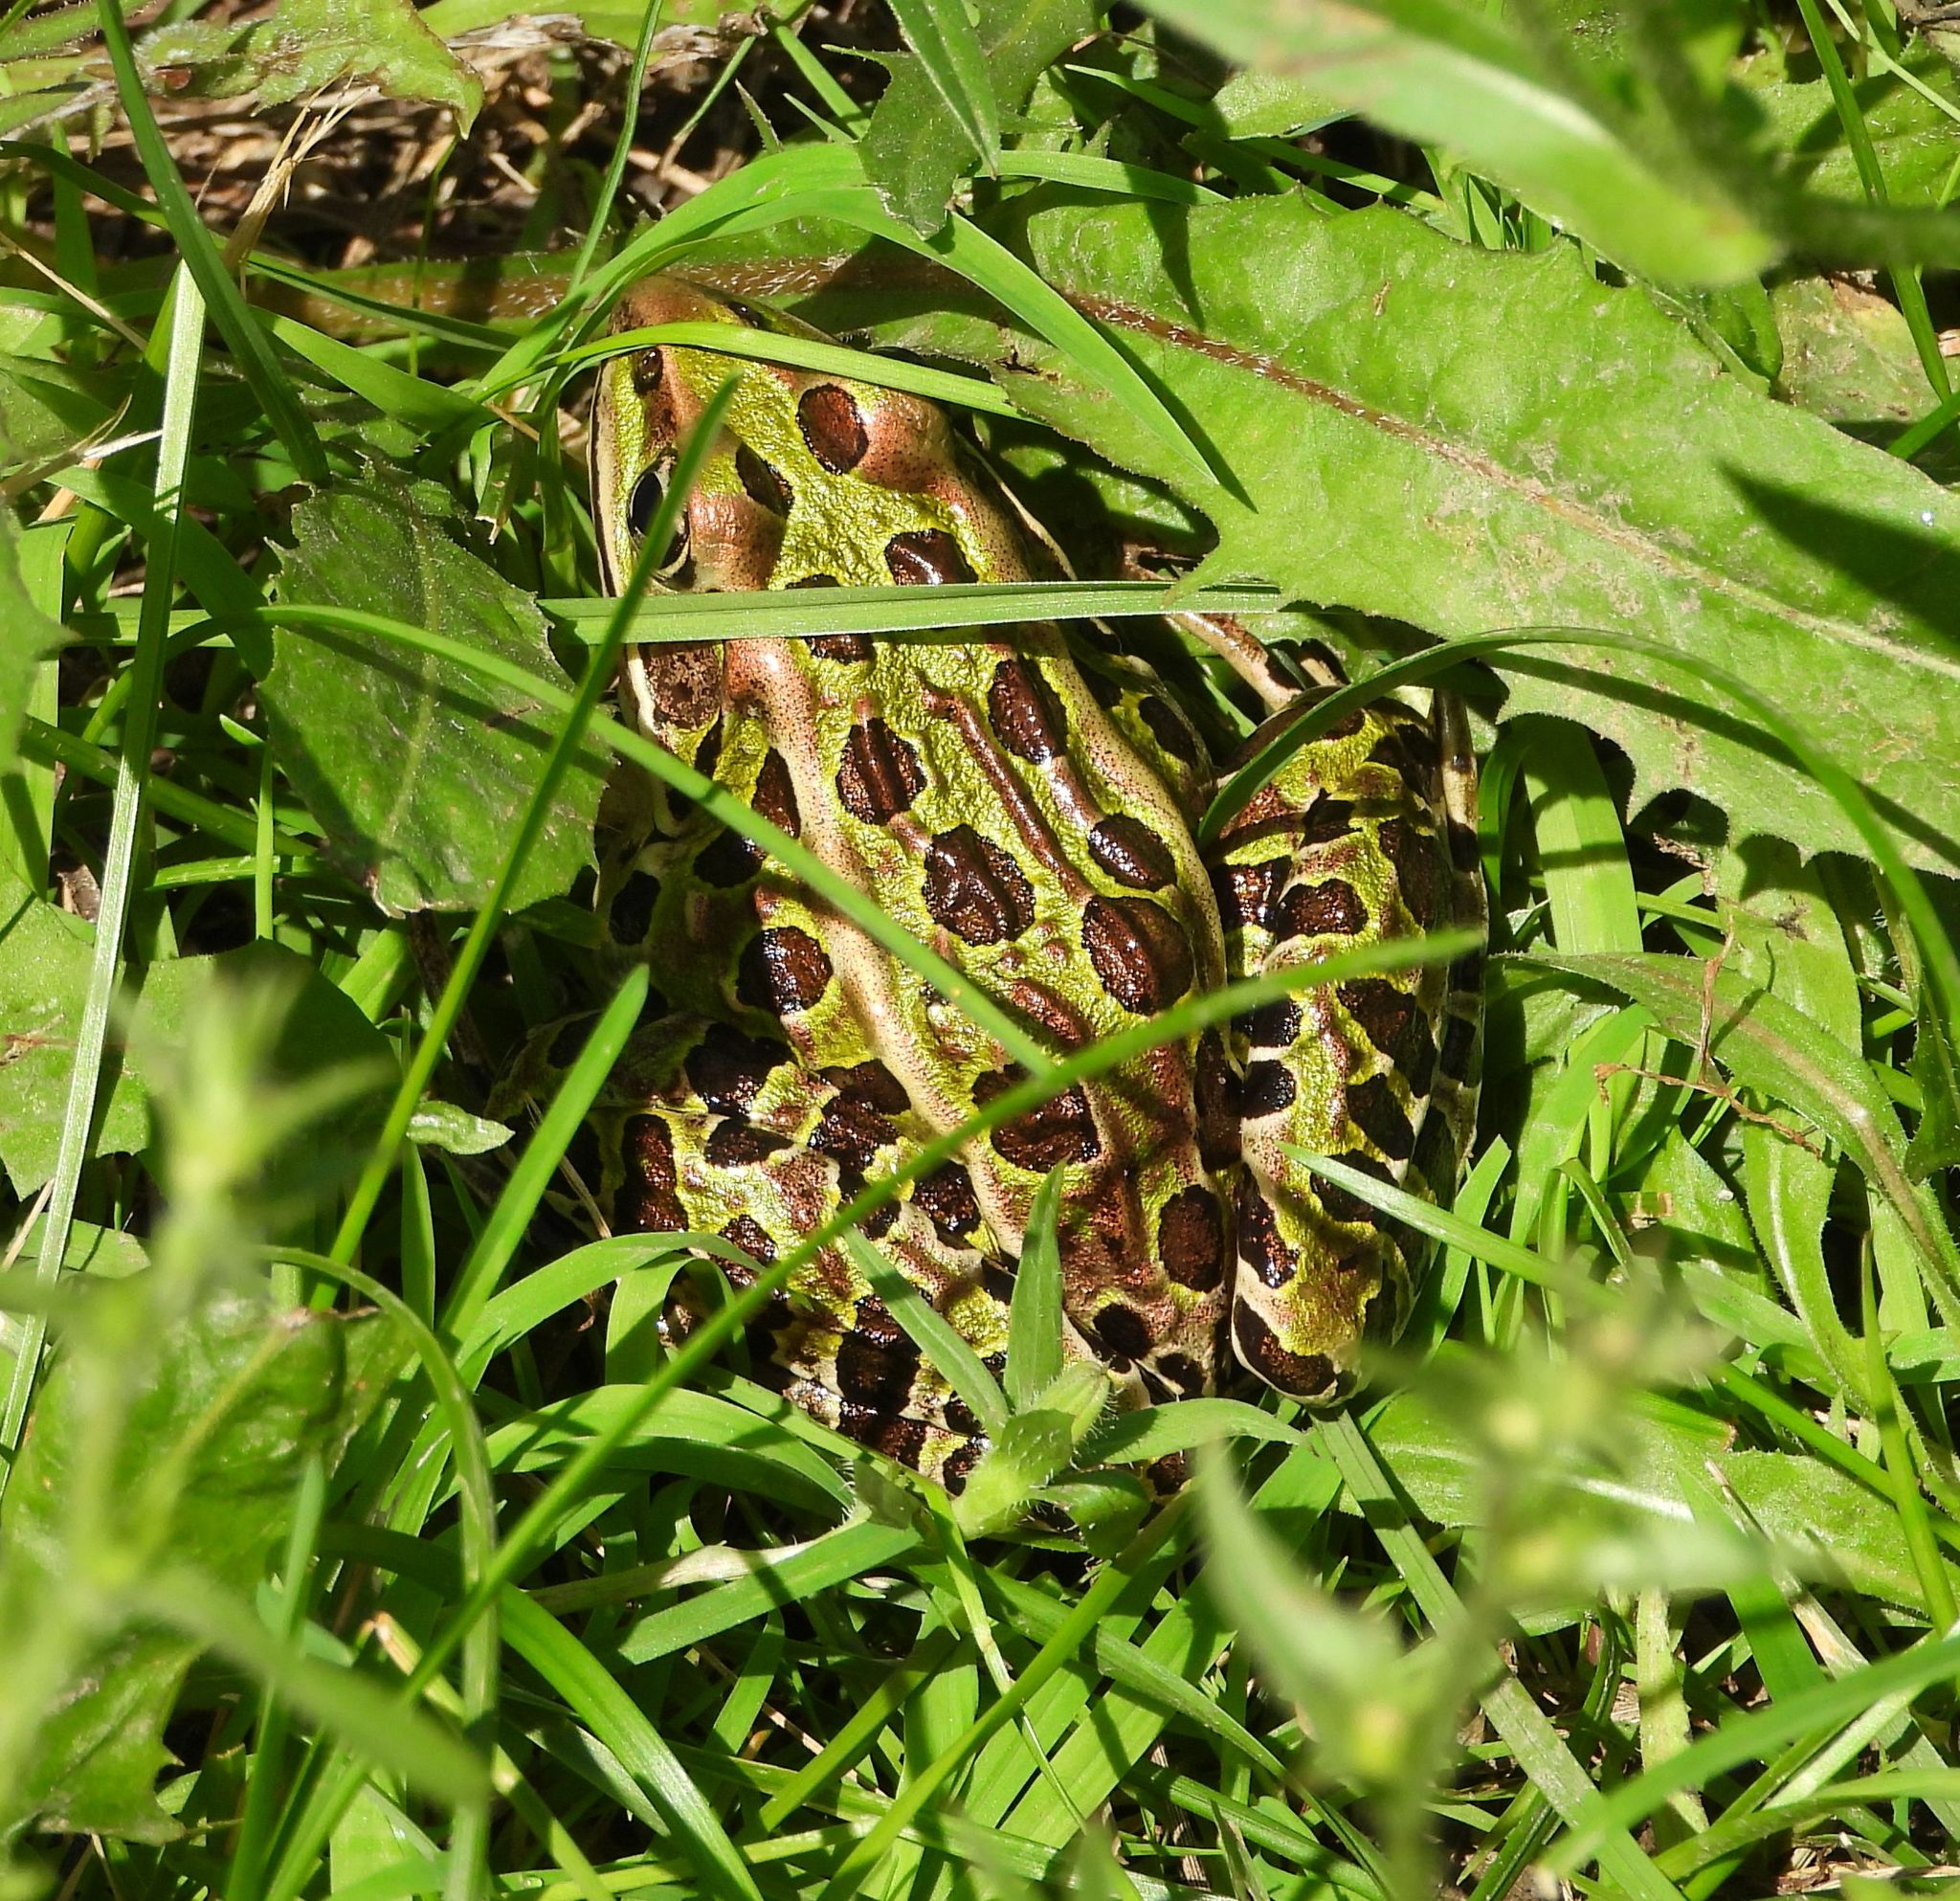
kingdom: Animalia
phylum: Chordata
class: Amphibia
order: Anura
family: Ranidae
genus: Lithobates
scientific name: Lithobates pipiens
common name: Northern leopard frog
